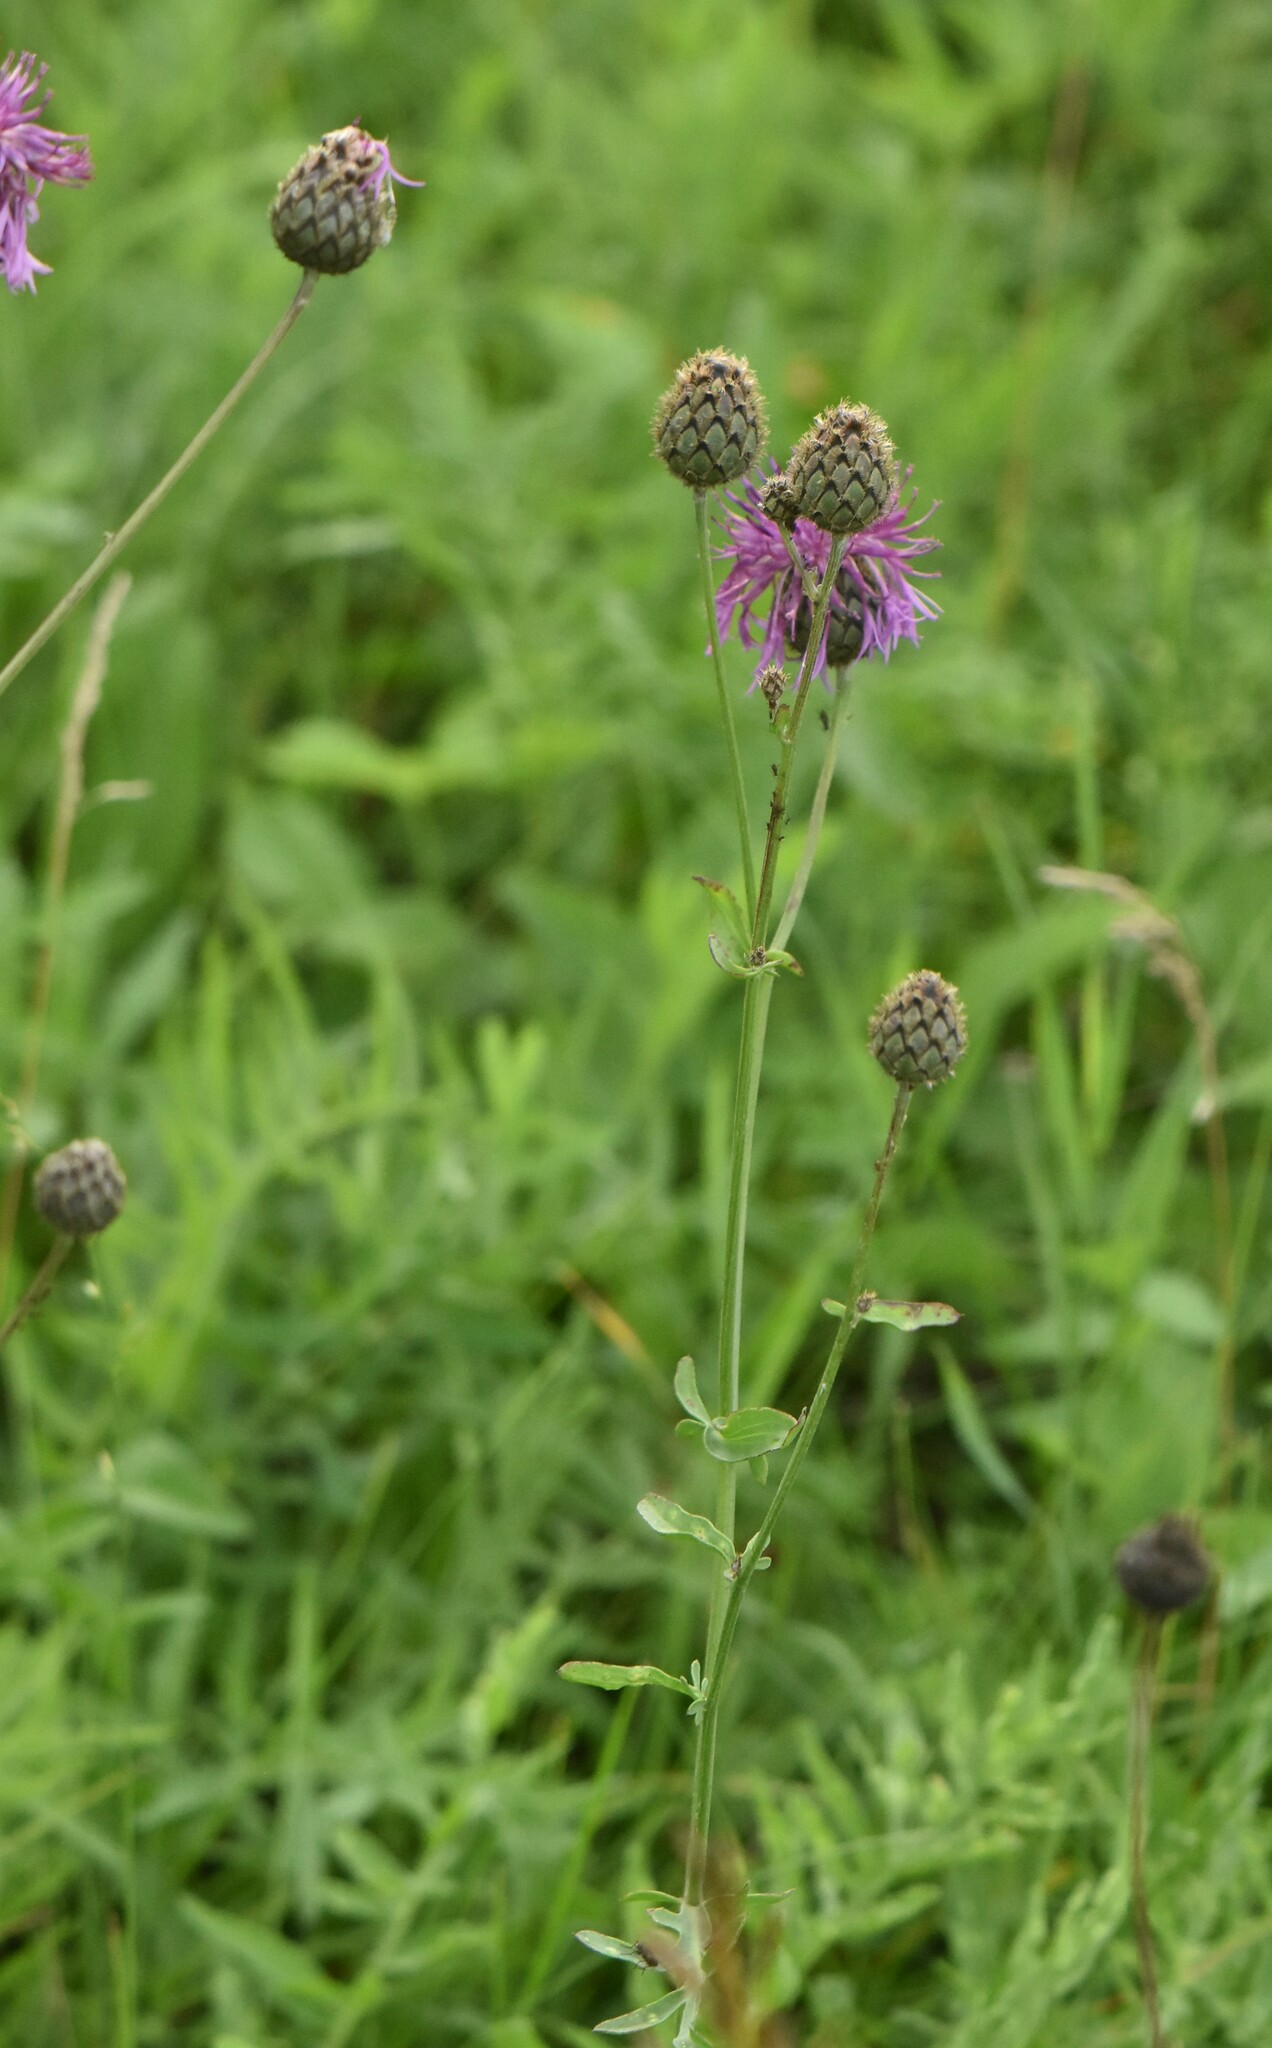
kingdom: Plantae
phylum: Tracheophyta
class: Magnoliopsida
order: Asterales
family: Asteraceae
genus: Centaurea
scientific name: Centaurea scabiosa
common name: Greater knapweed
